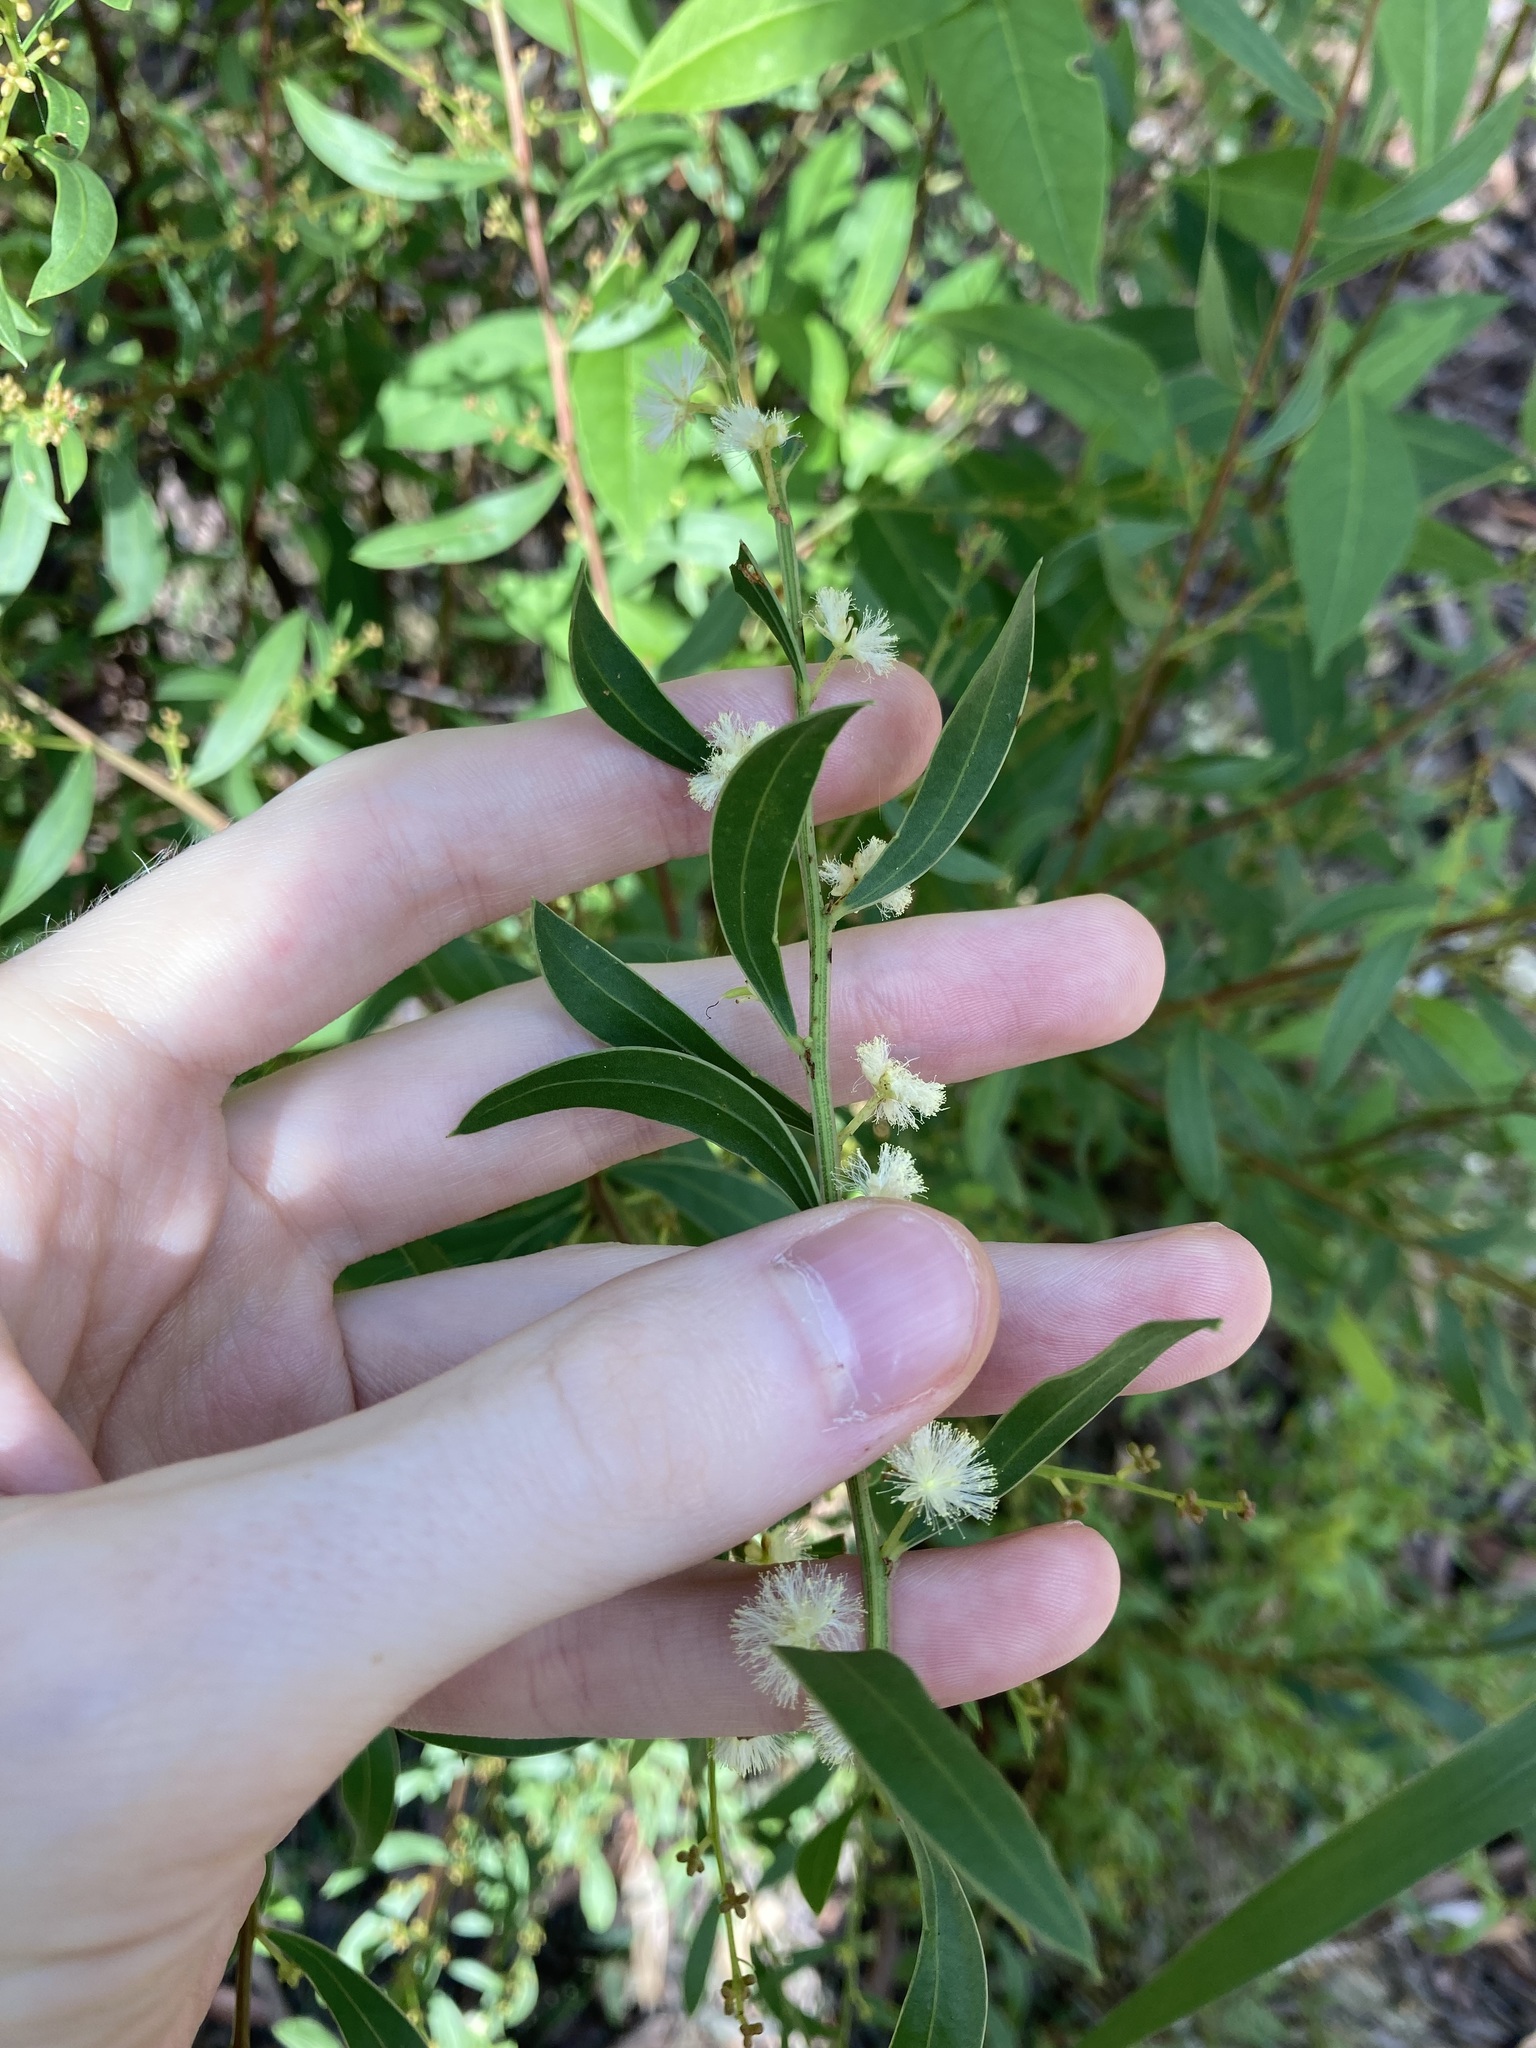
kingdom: Plantae
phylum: Tracheophyta
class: Magnoliopsida
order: Fabales
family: Fabaceae
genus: Acacia
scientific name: Acacia myrtifolia
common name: Myrtle wattle
